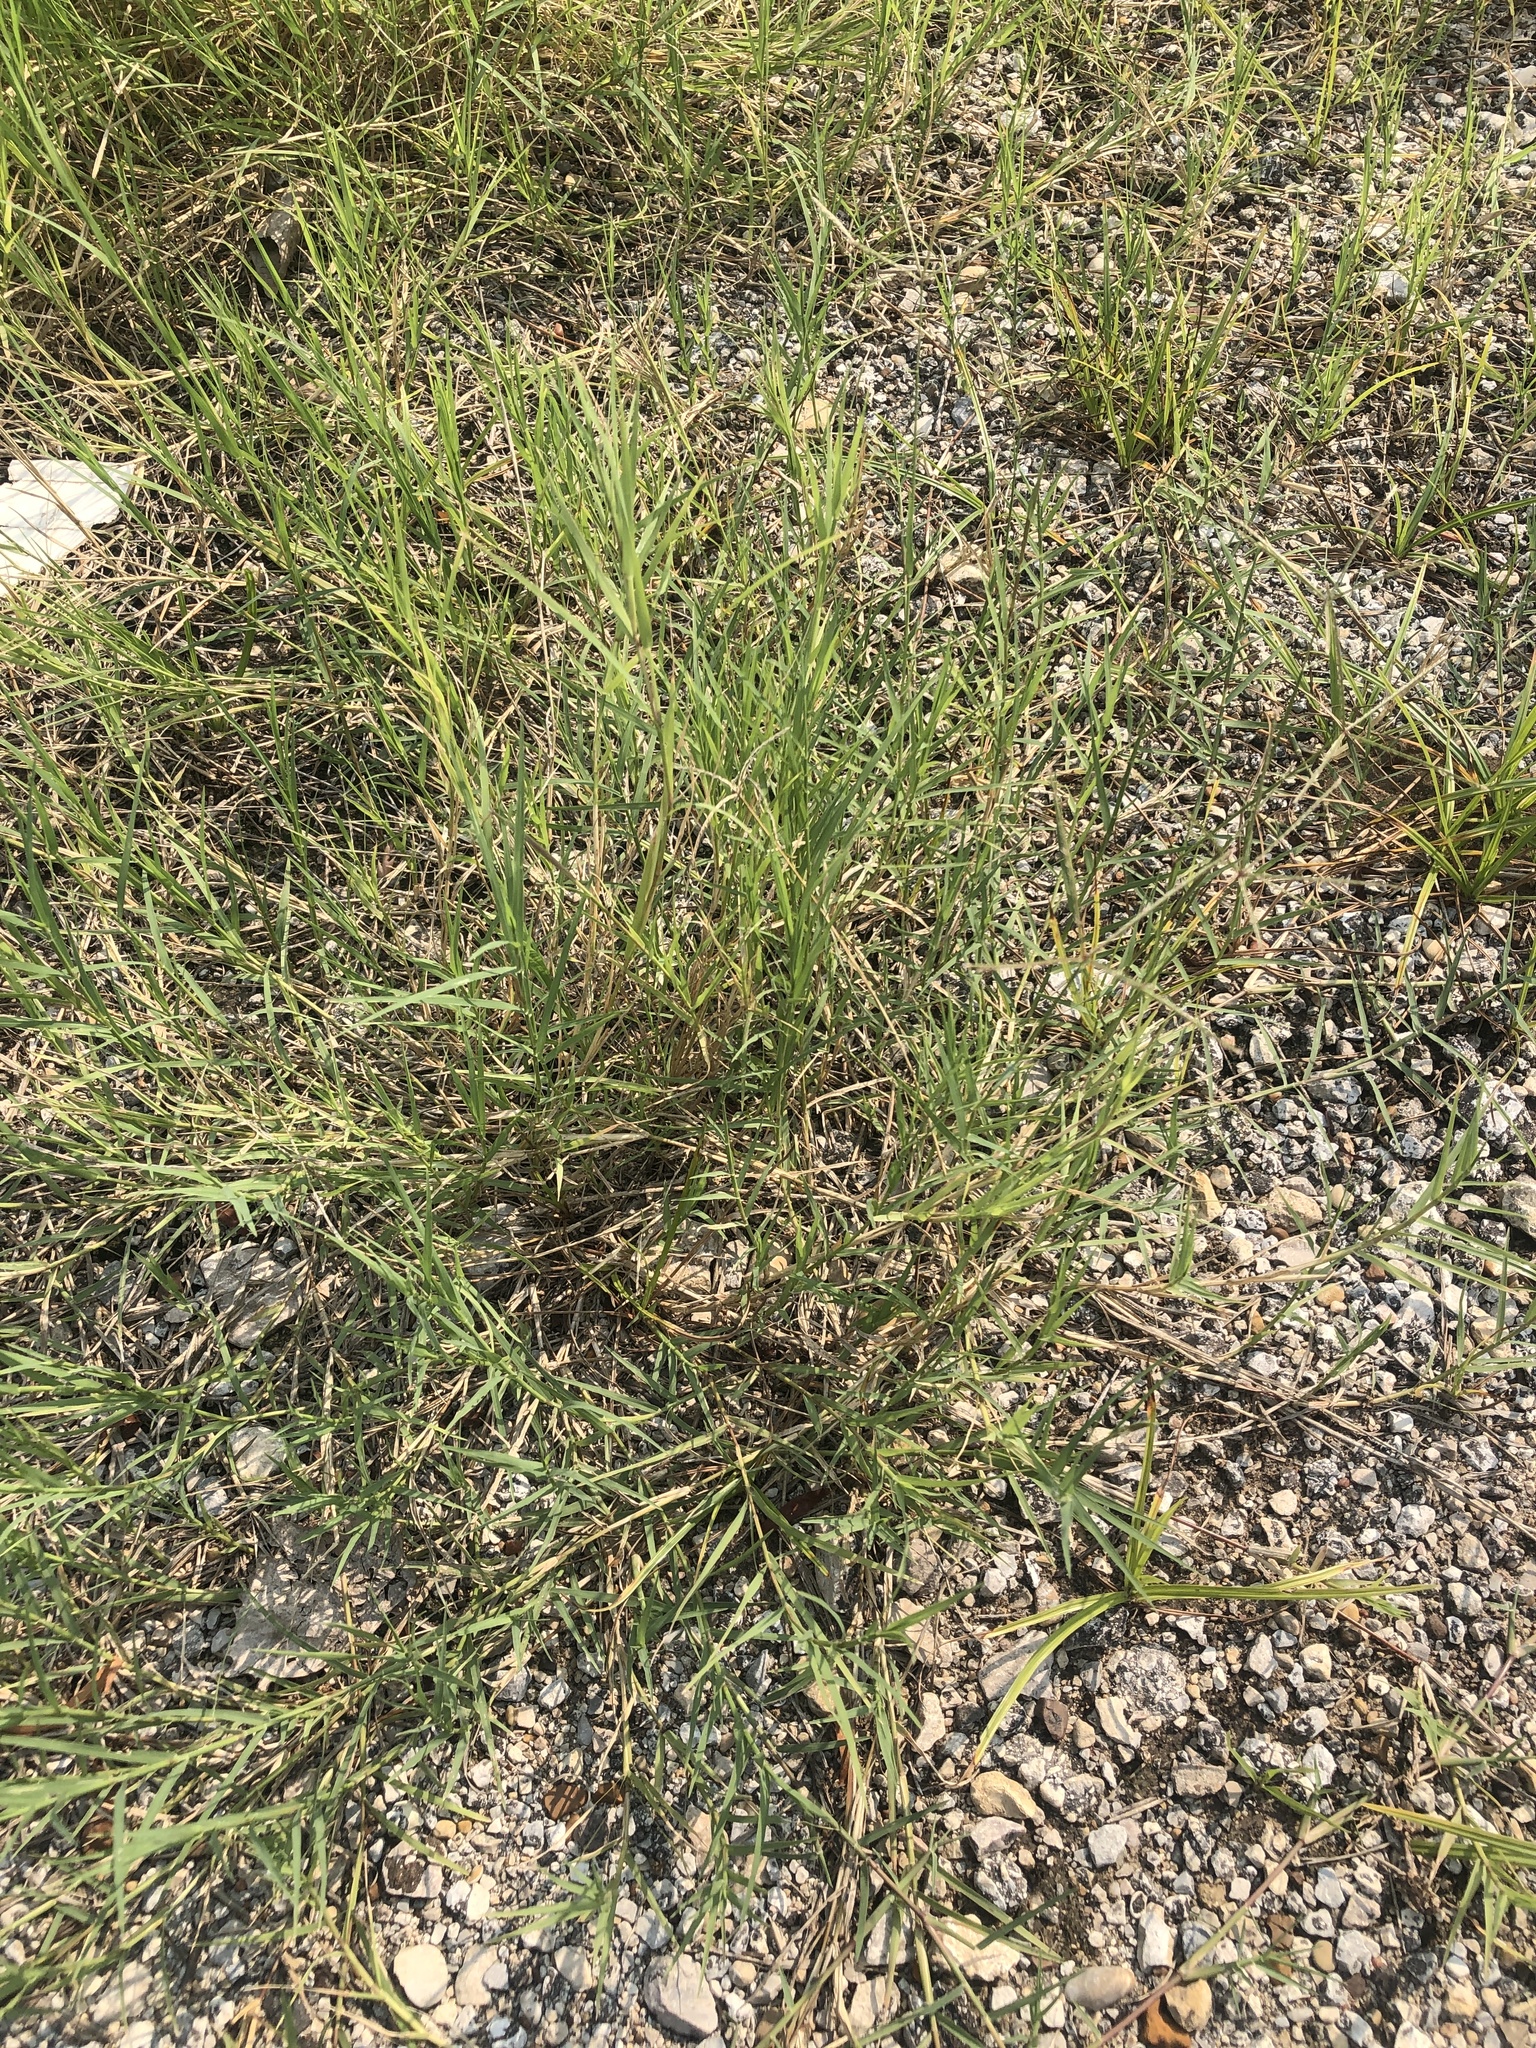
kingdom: Plantae
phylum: Tracheophyta
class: Liliopsida
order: Poales
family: Poaceae
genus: Cynodon
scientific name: Cynodon dactylon
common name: Bermuda grass
